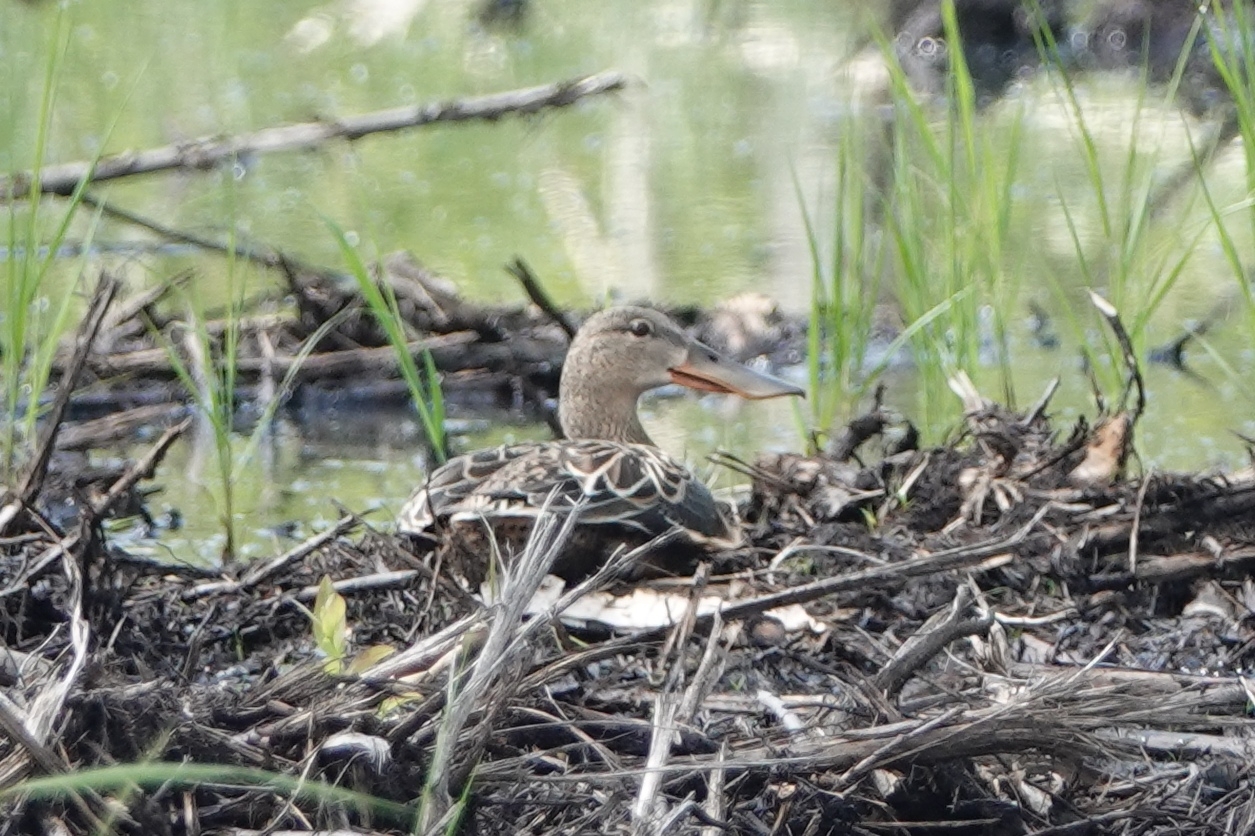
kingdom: Animalia
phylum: Chordata
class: Aves
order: Anseriformes
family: Anatidae
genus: Spatula
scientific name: Spatula clypeata
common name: Northern shoveler
